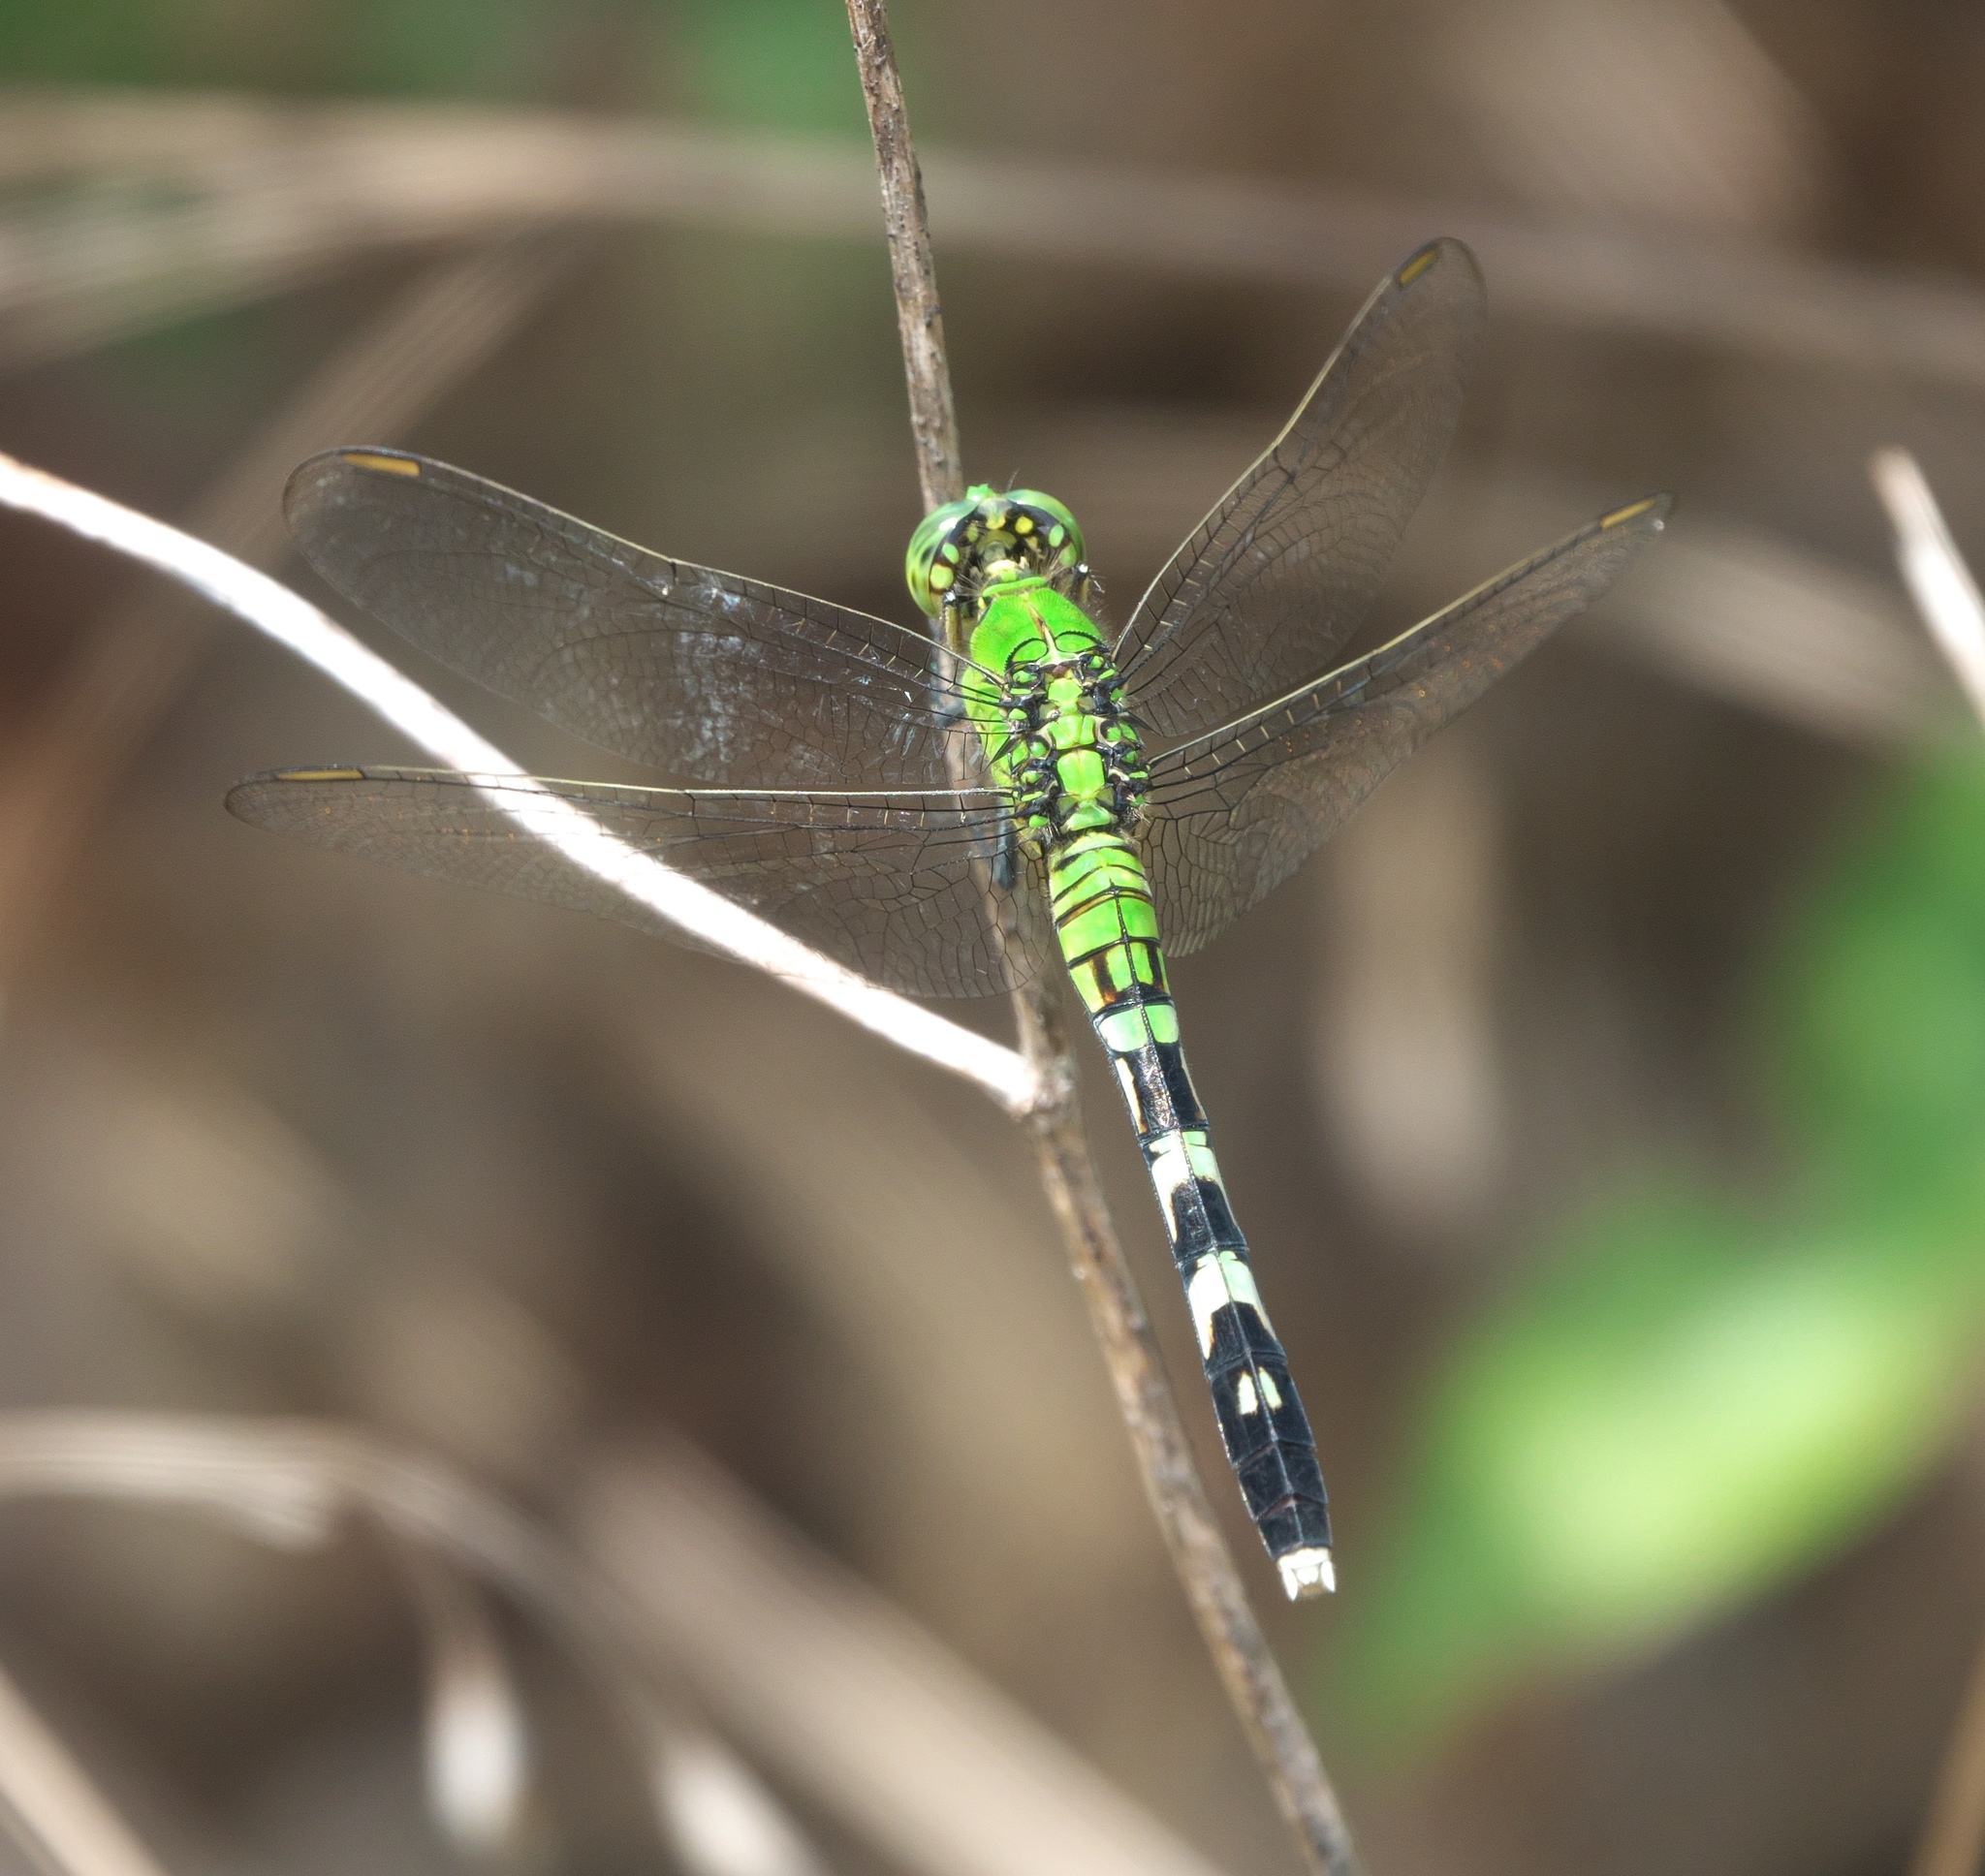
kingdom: Animalia
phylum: Arthropoda
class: Insecta
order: Odonata
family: Libellulidae
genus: Erythemis
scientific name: Erythemis simplicicollis
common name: Eastern pondhawk
